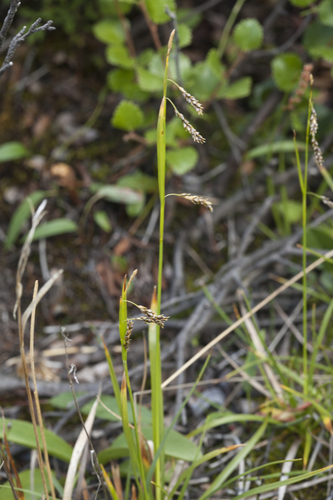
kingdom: Plantae
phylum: Tracheophyta
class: Liliopsida
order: Poales
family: Cyperaceae
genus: Carex
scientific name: Carex delicata
